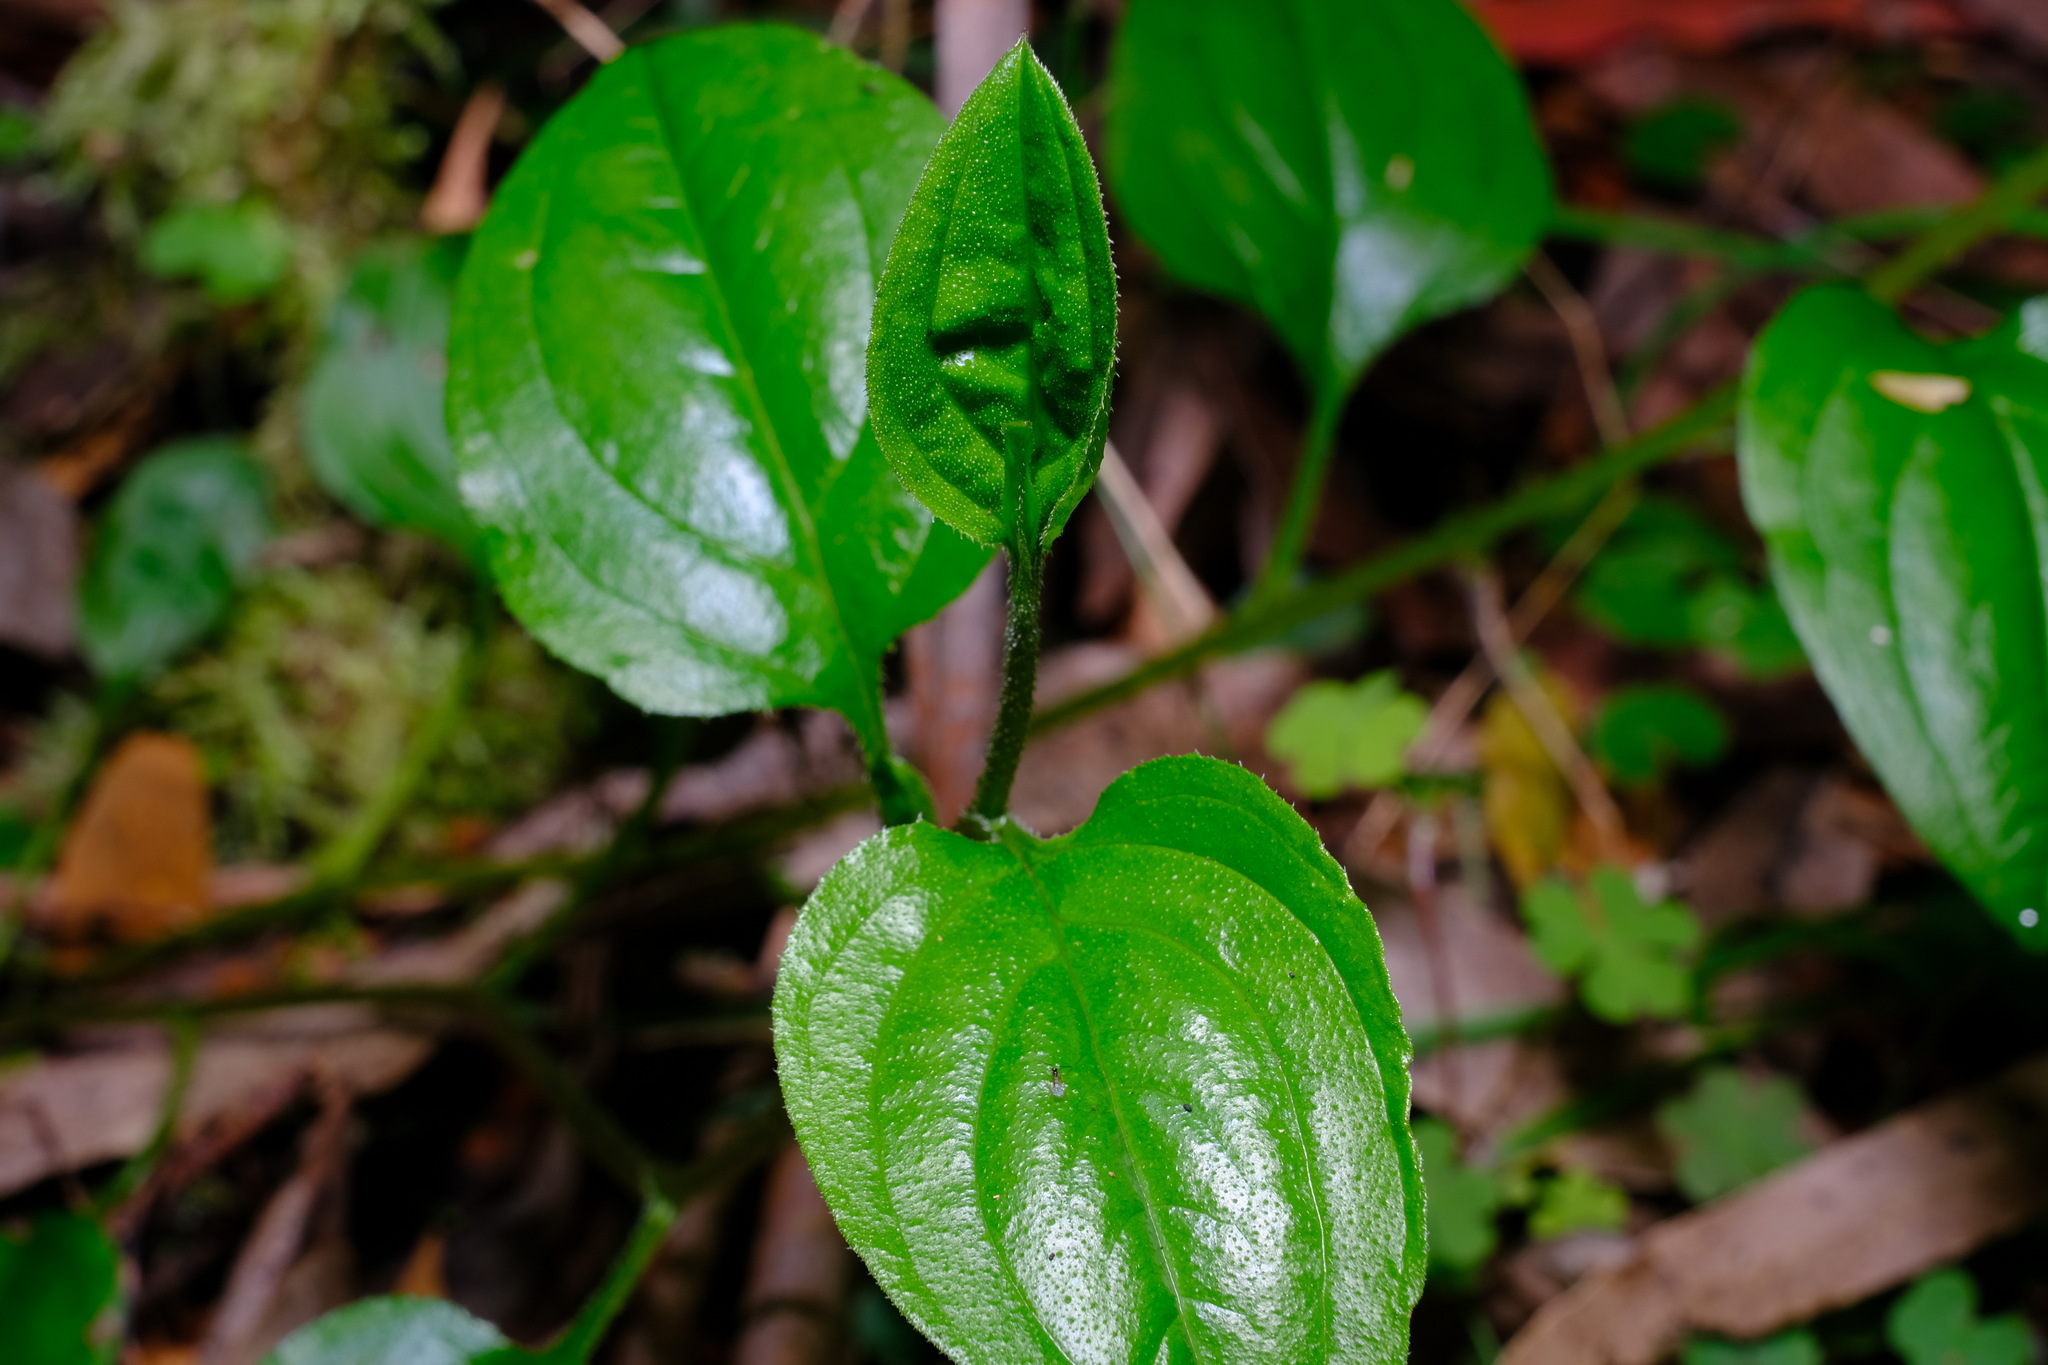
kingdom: Plantae
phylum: Tracheophyta
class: Magnoliopsida
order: Boraginales
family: Boraginaceae
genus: Hackelia
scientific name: Hackelia latifolia
